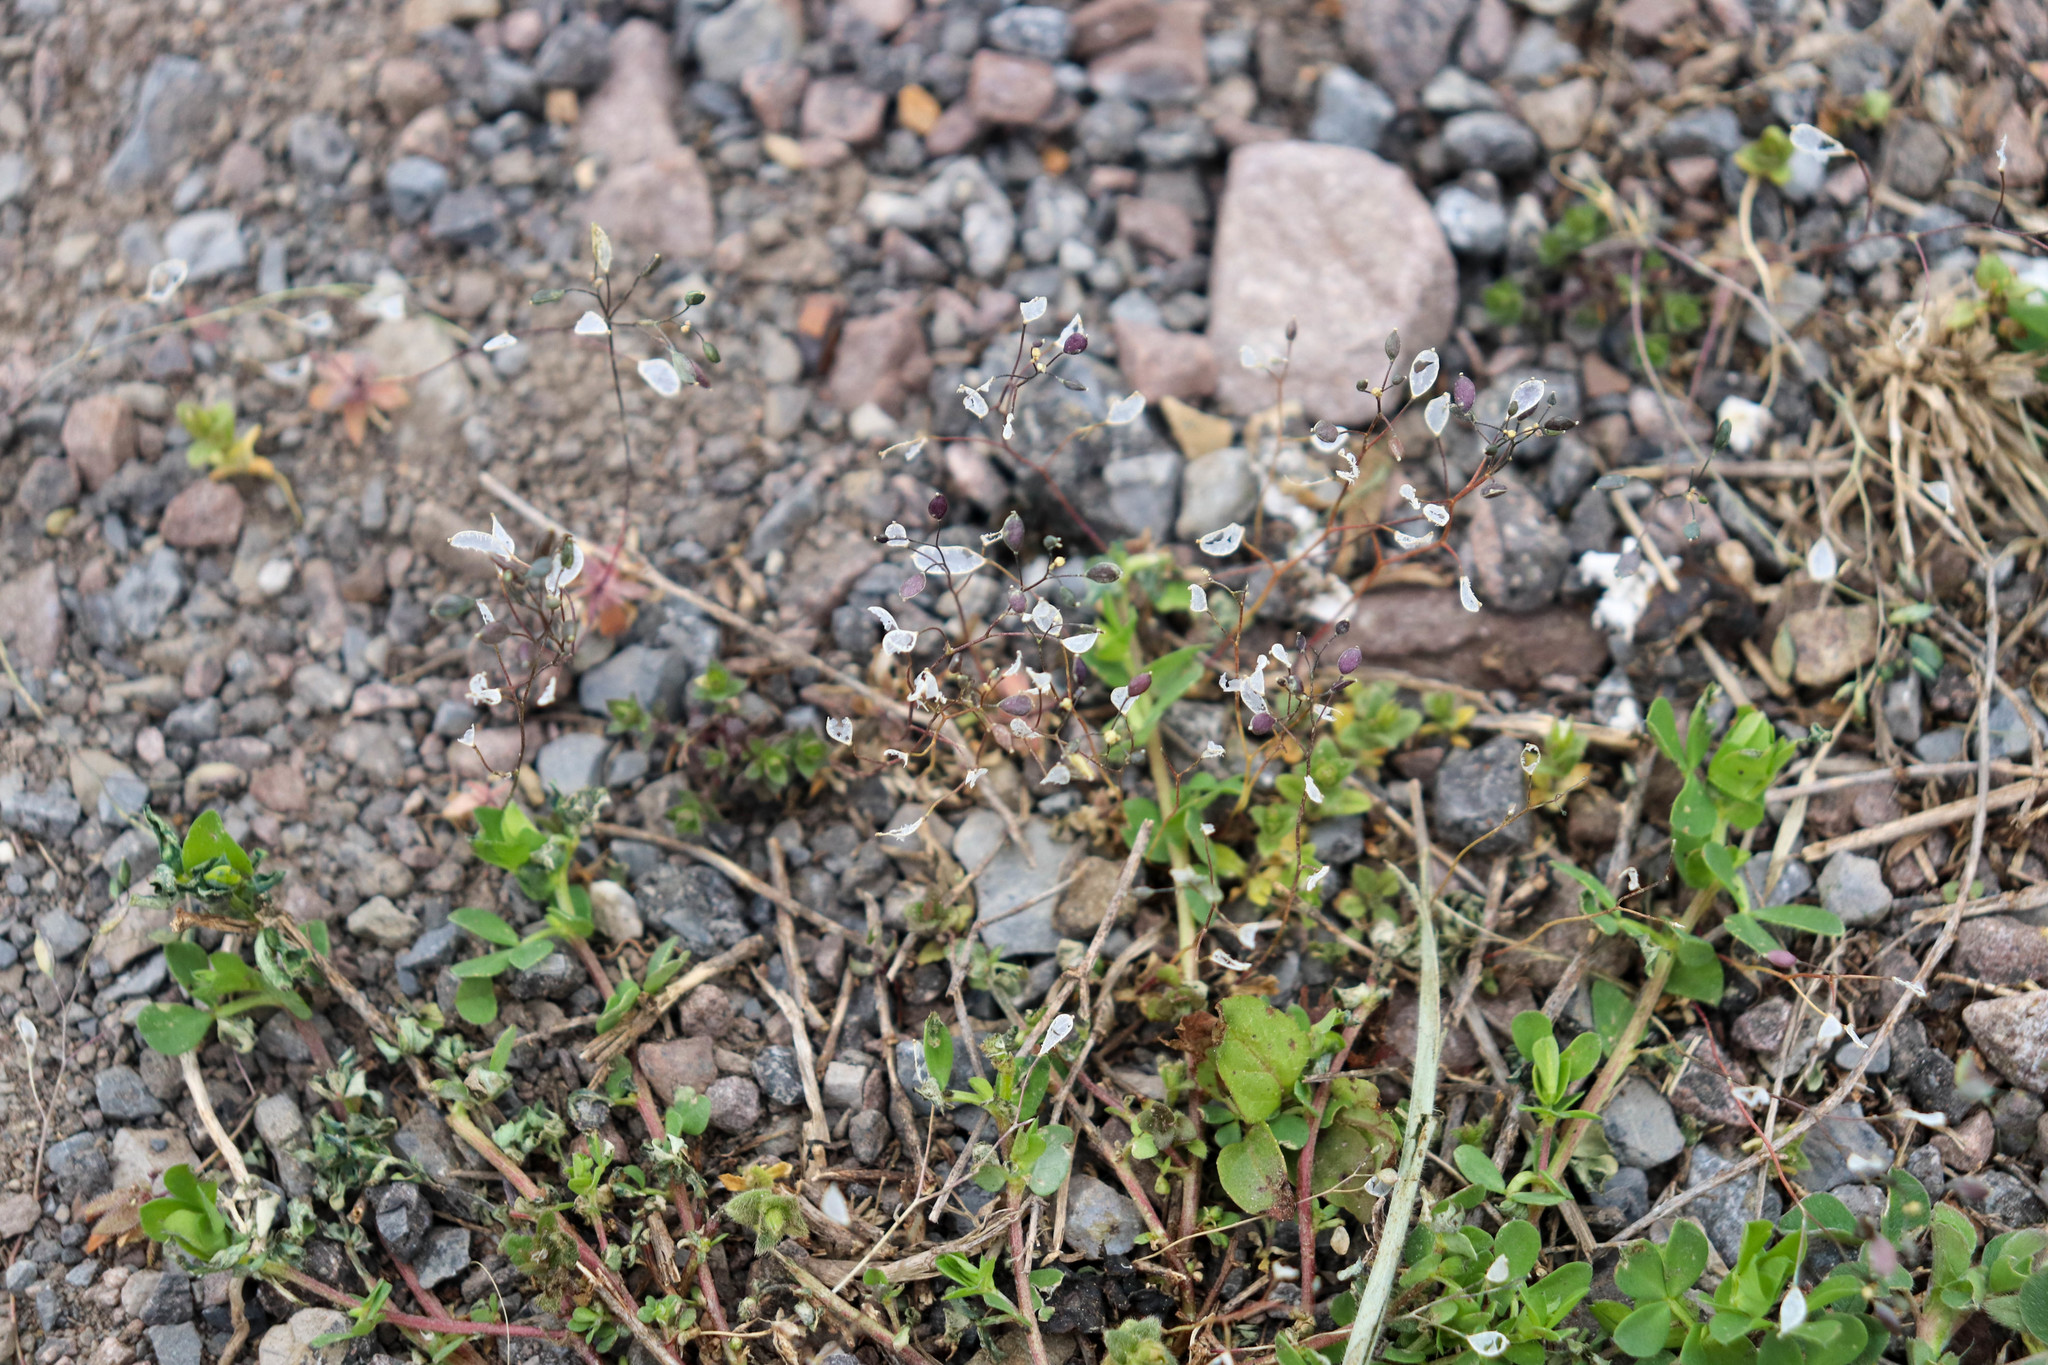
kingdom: Plantae
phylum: Tracheophyta
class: Magnoliopsida
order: Brassicales
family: Brassicaceae
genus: Draba
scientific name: Draba verna
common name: Spring draba
